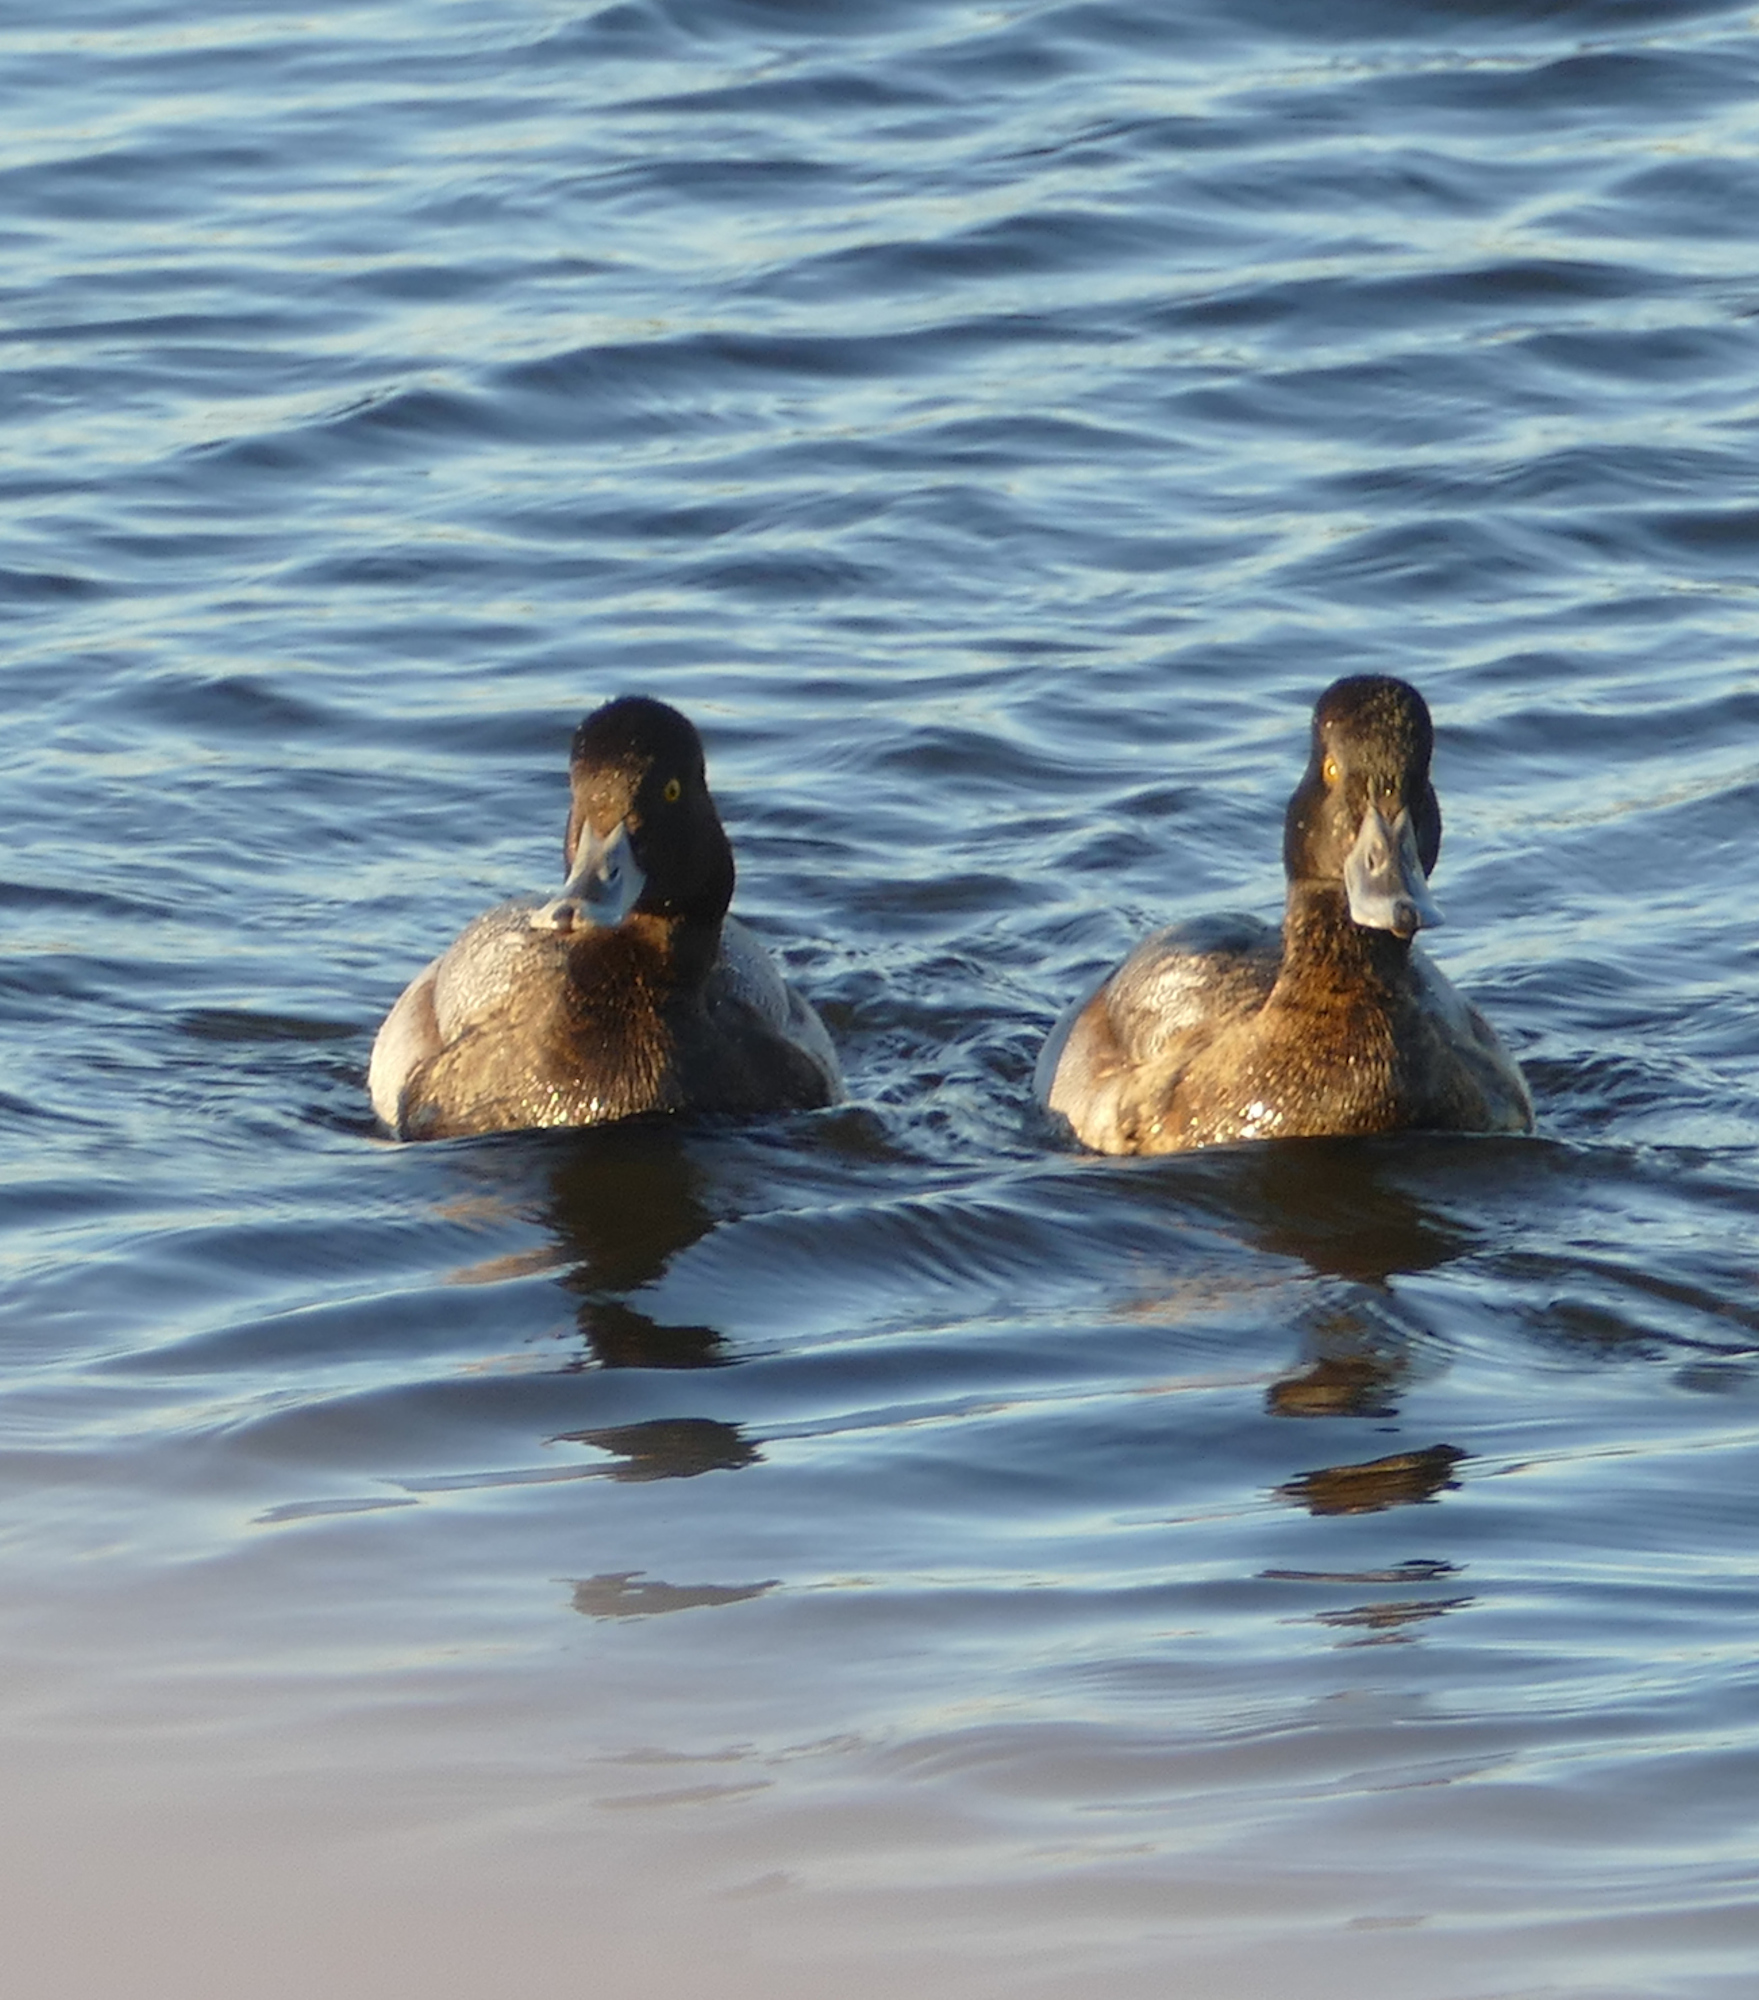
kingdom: Animalia
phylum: Chordata
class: Aves
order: Anseriformes
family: Anatidae
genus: Aythya
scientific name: Aythya affinis
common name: Lesser scaup
